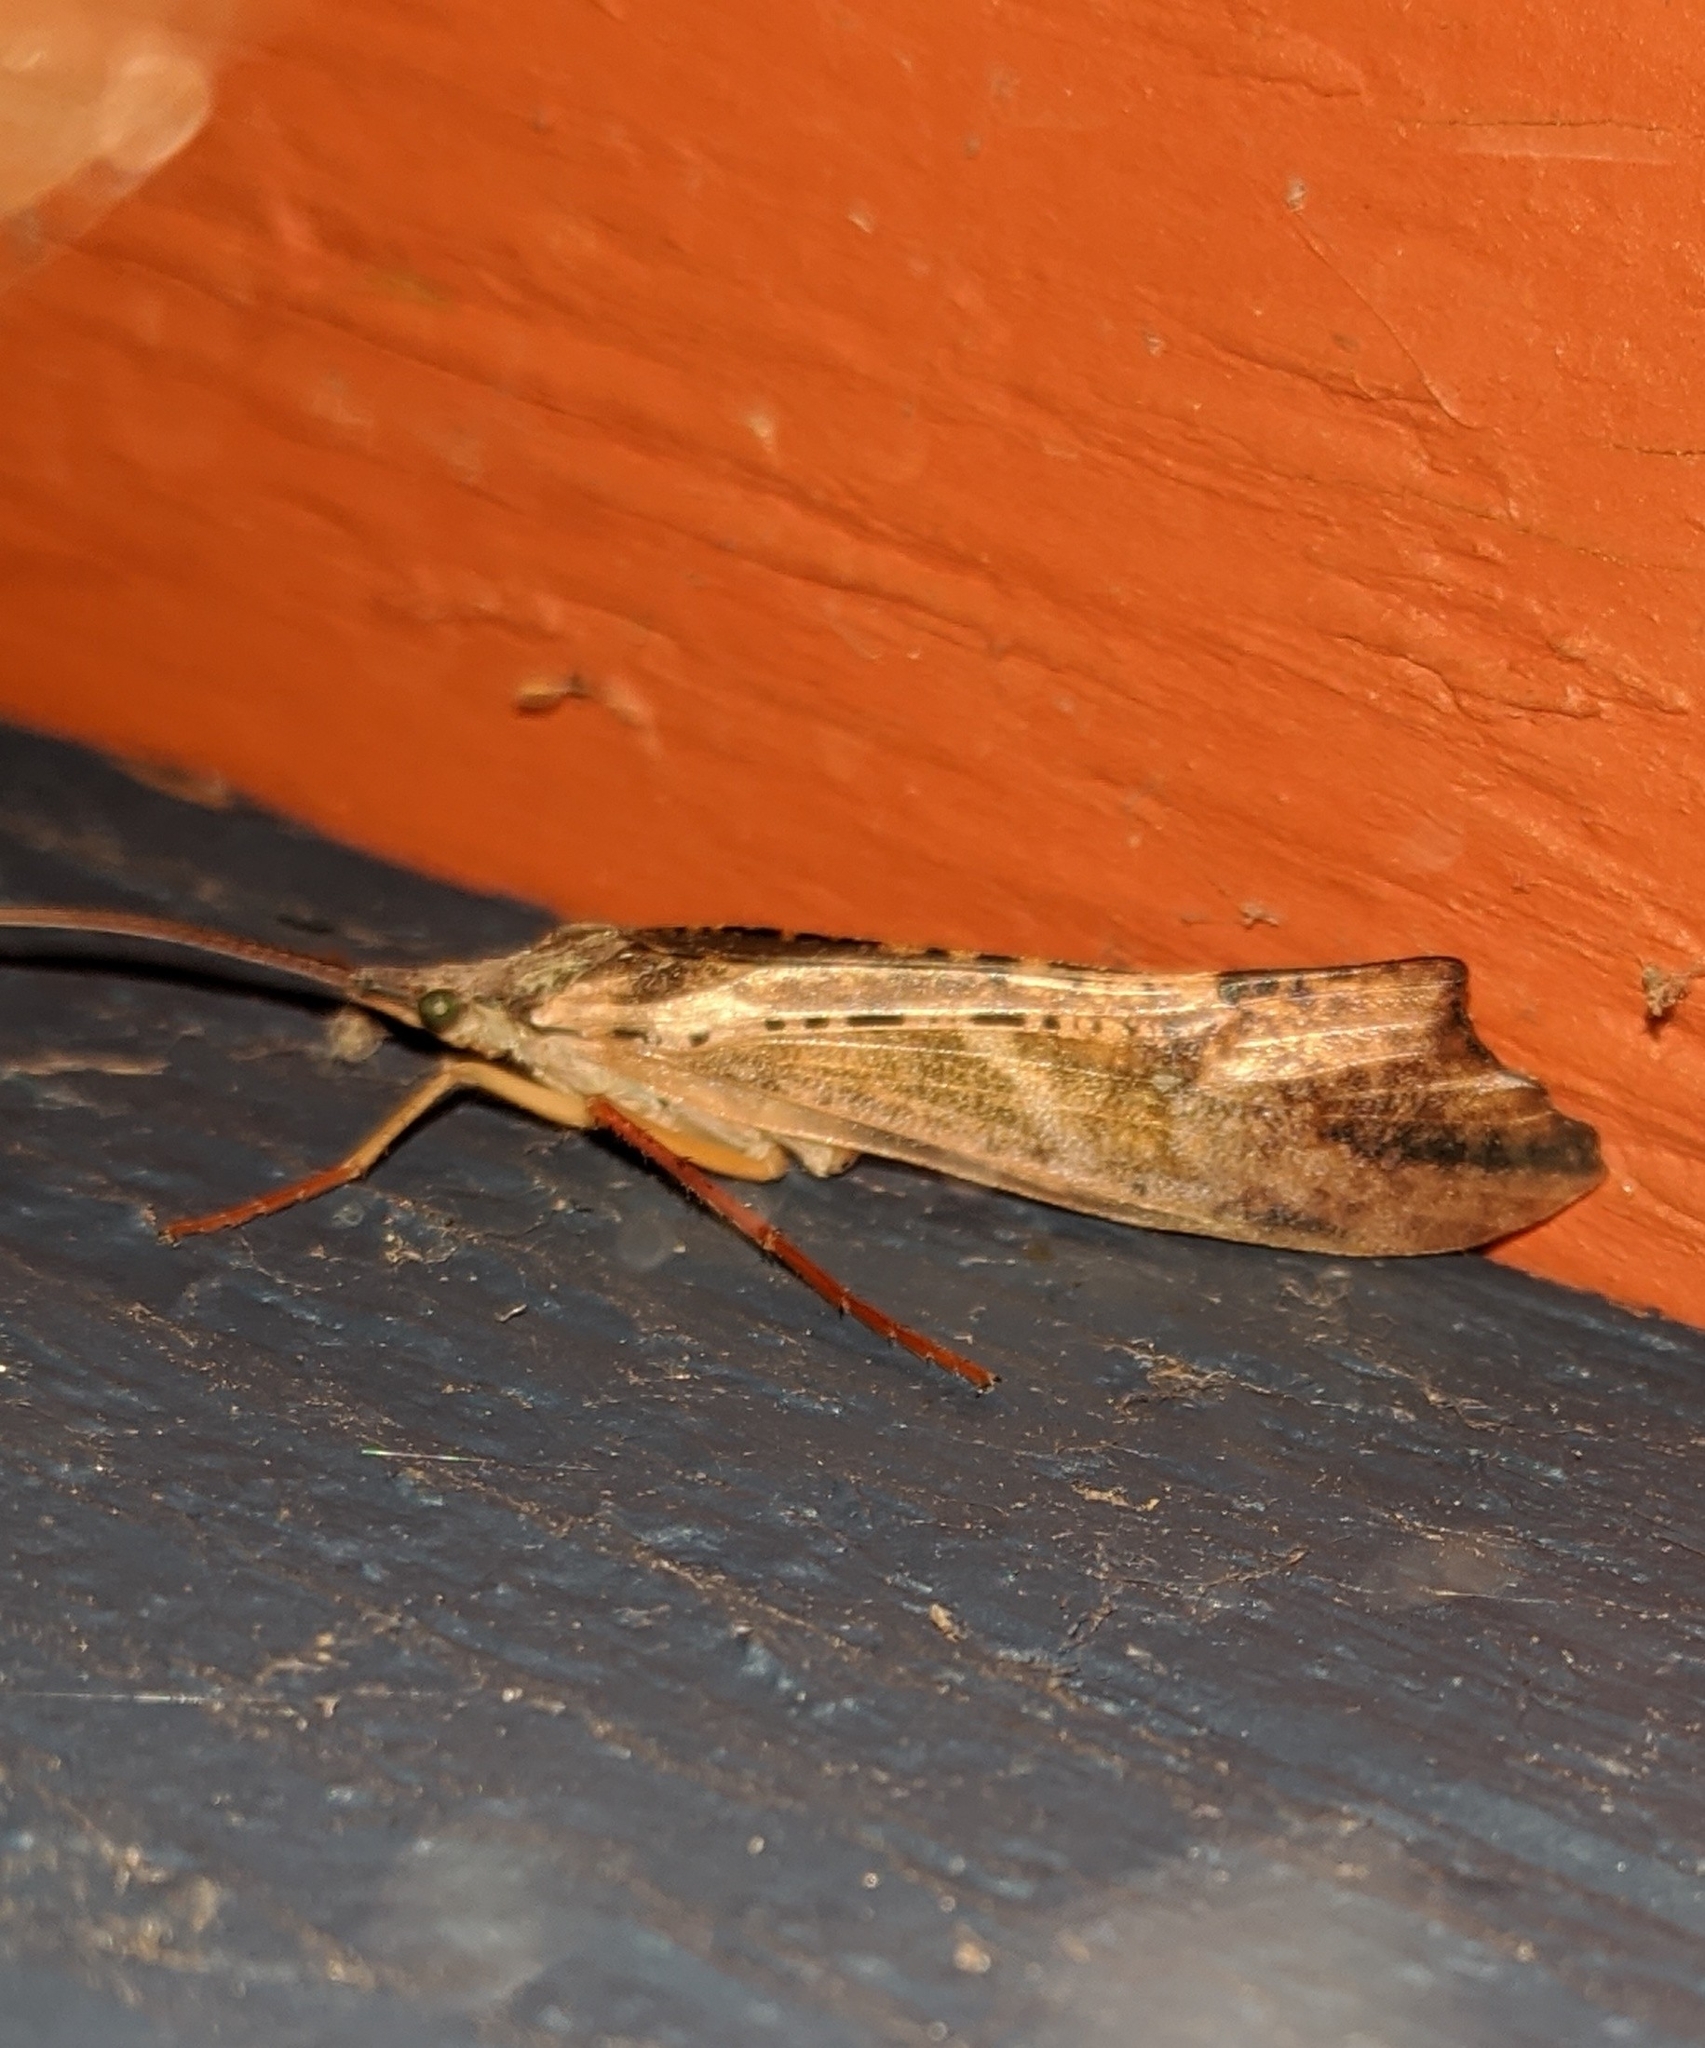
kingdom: Animalia
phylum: Arthropoda
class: Insecta
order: Trichoptera
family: Limnephilidae
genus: Nemotaulius
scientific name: Nemotaulius hostilis
